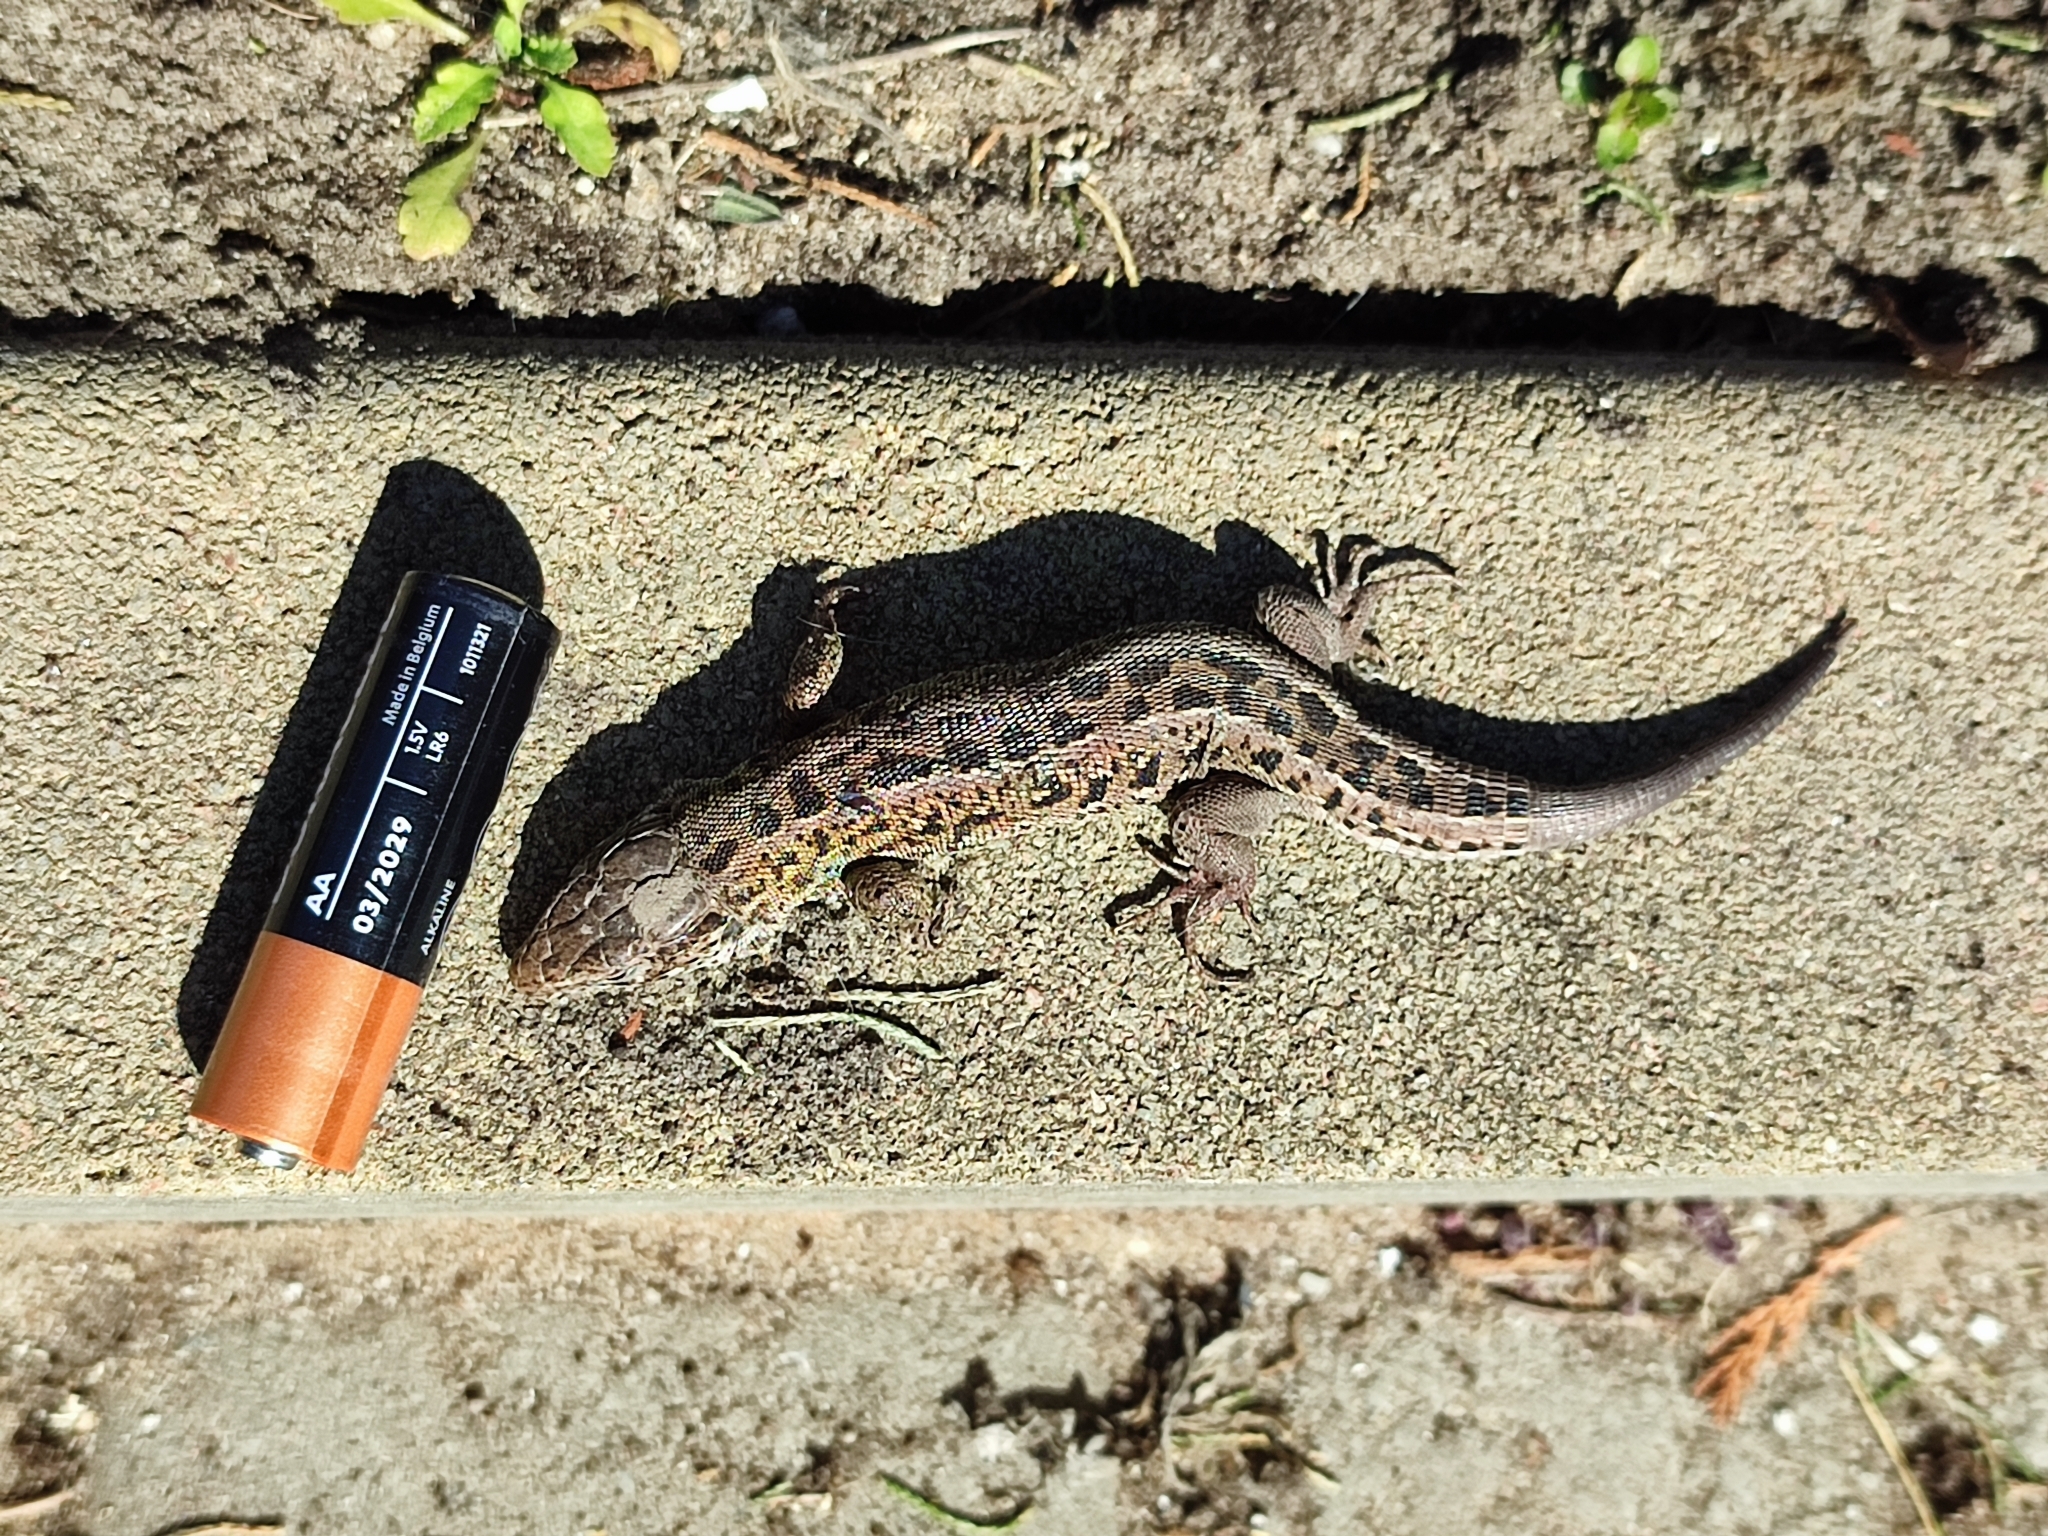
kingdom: Animalia
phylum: Chordata
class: Squamata
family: Lacertidae
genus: Lacerta
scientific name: Lacerta agilis
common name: Sand lizard
